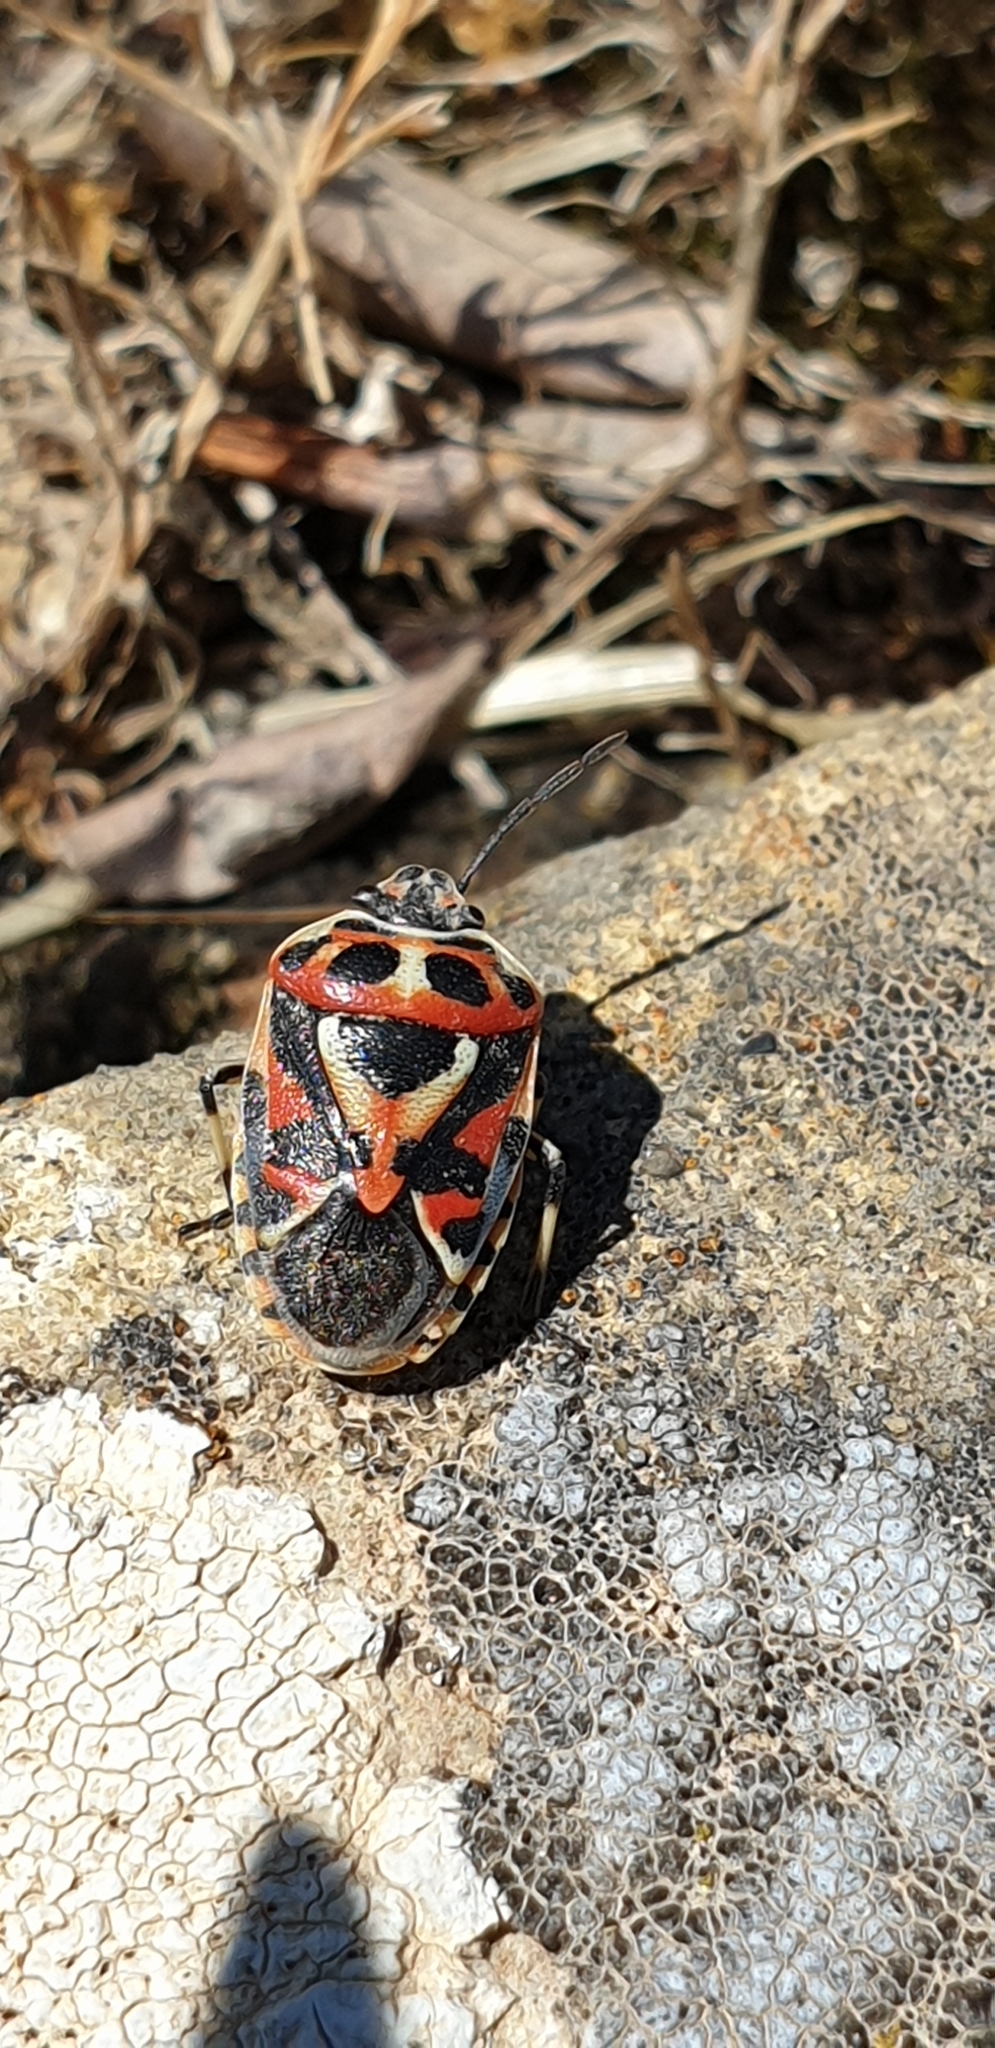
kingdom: Animalia
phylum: Arthropoda
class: Insecta
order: Hemiptera
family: Pentatomidae
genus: Eurydema
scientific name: Eurydema ornata
